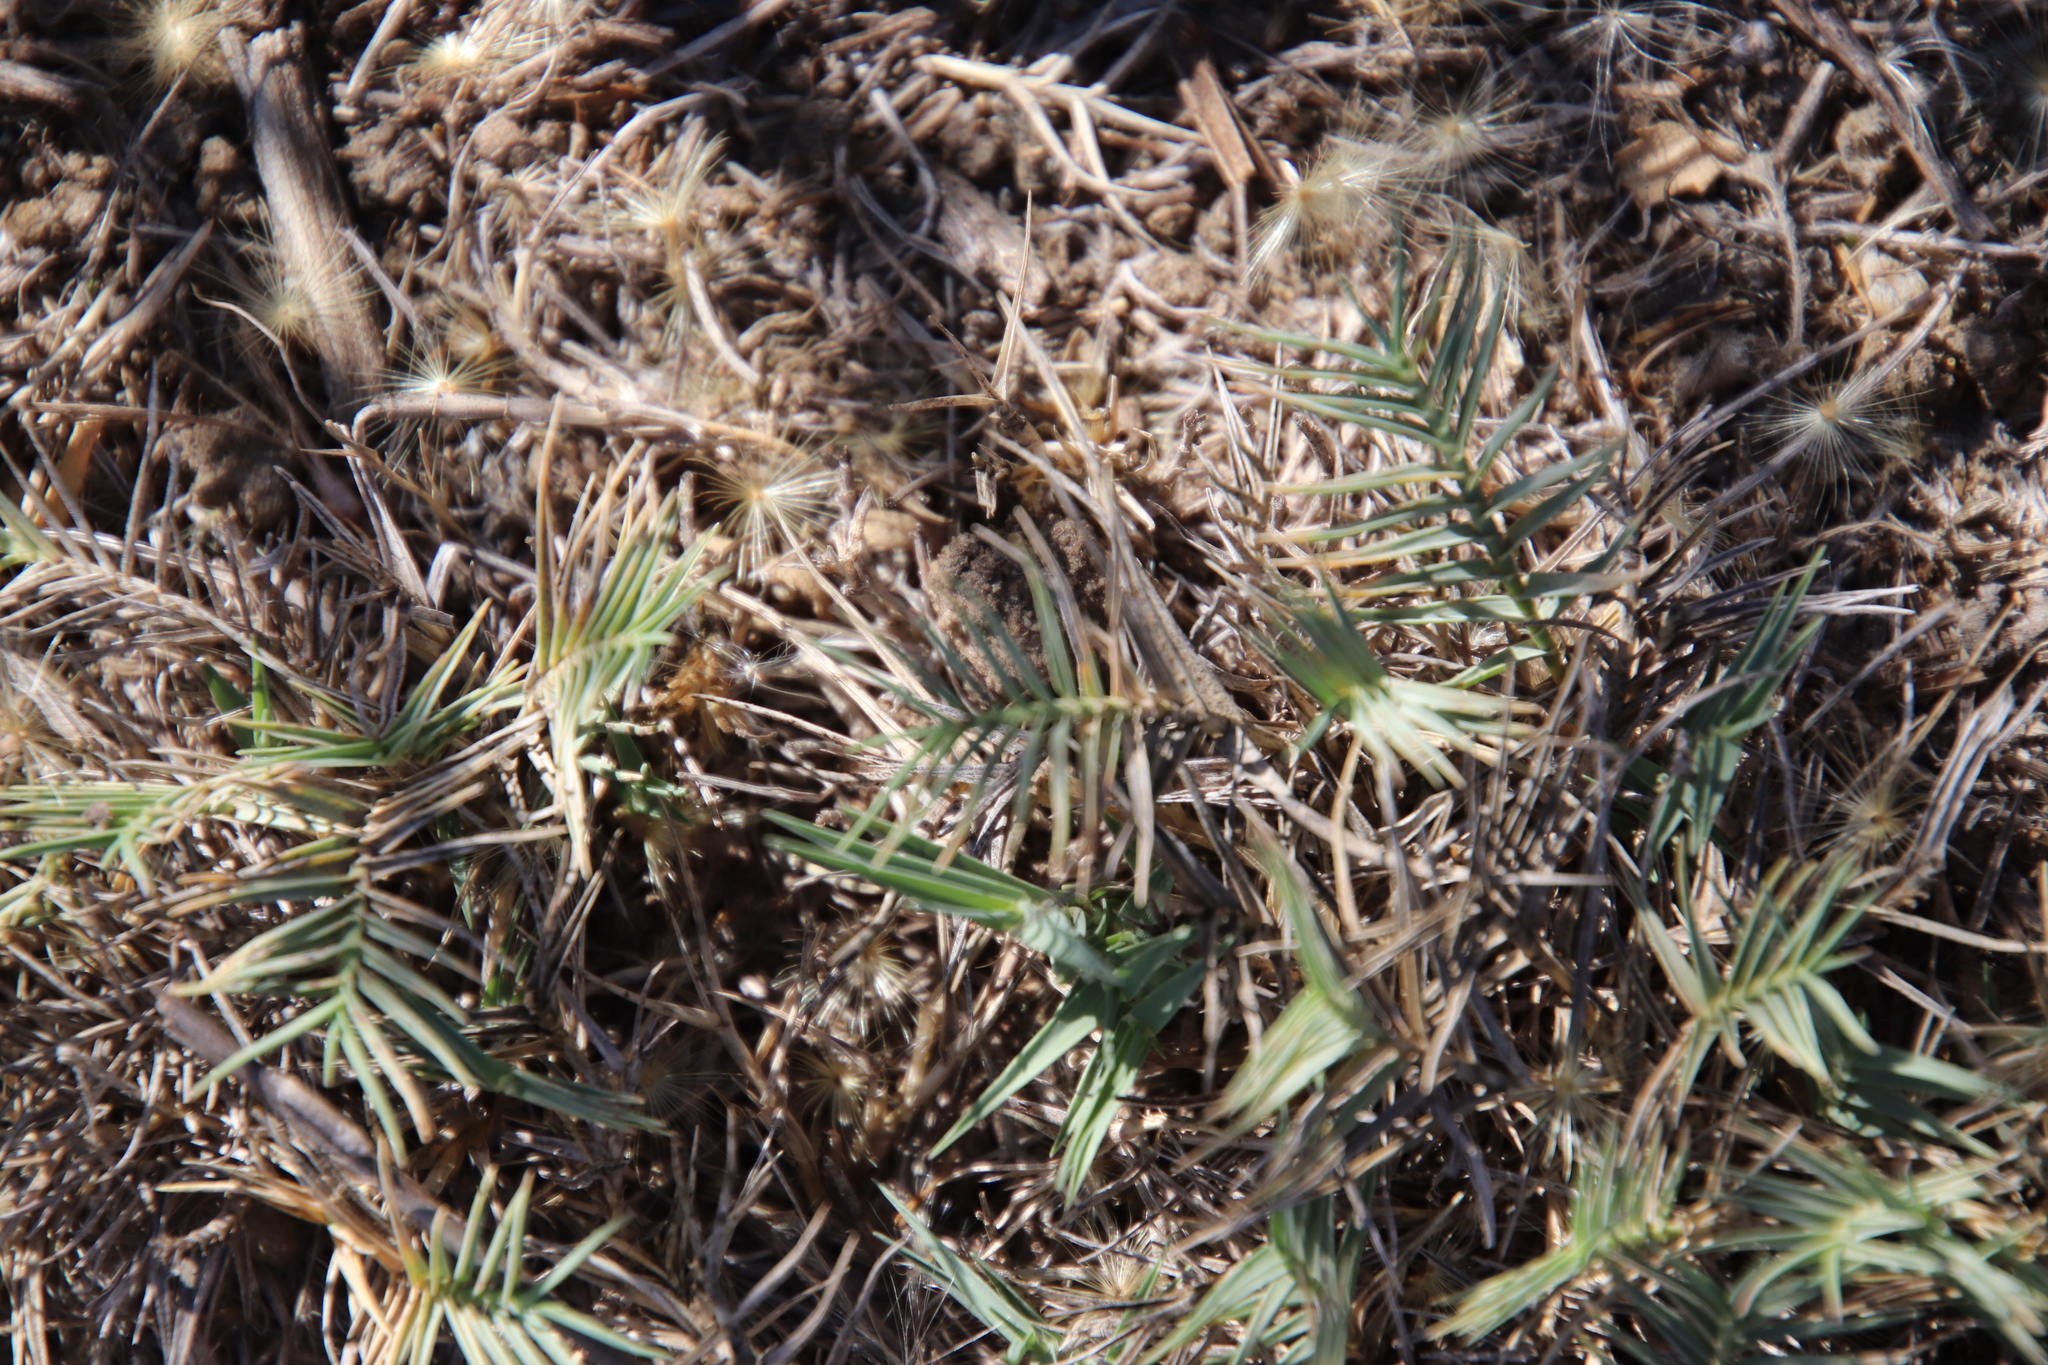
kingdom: Plantae
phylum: Tracheophyta
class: Liliopsida
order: Poales
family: Poaceae
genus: Distichlis
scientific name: Distichlis littoralis
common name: Shore grass
